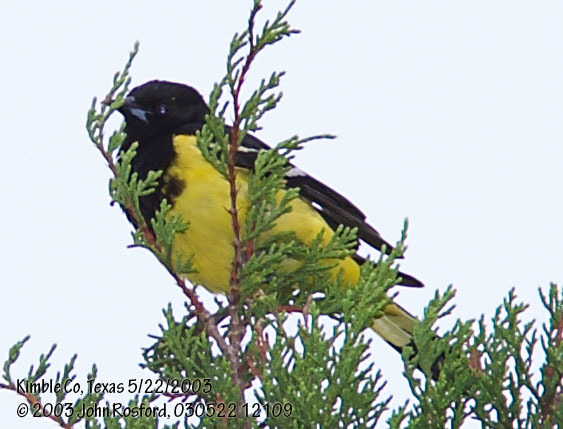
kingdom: Animalia
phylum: Chordata
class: Aves
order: Passeriformes
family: Icteridae
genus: Icterus
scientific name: Icterus parisorum
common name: Scott's oriole
